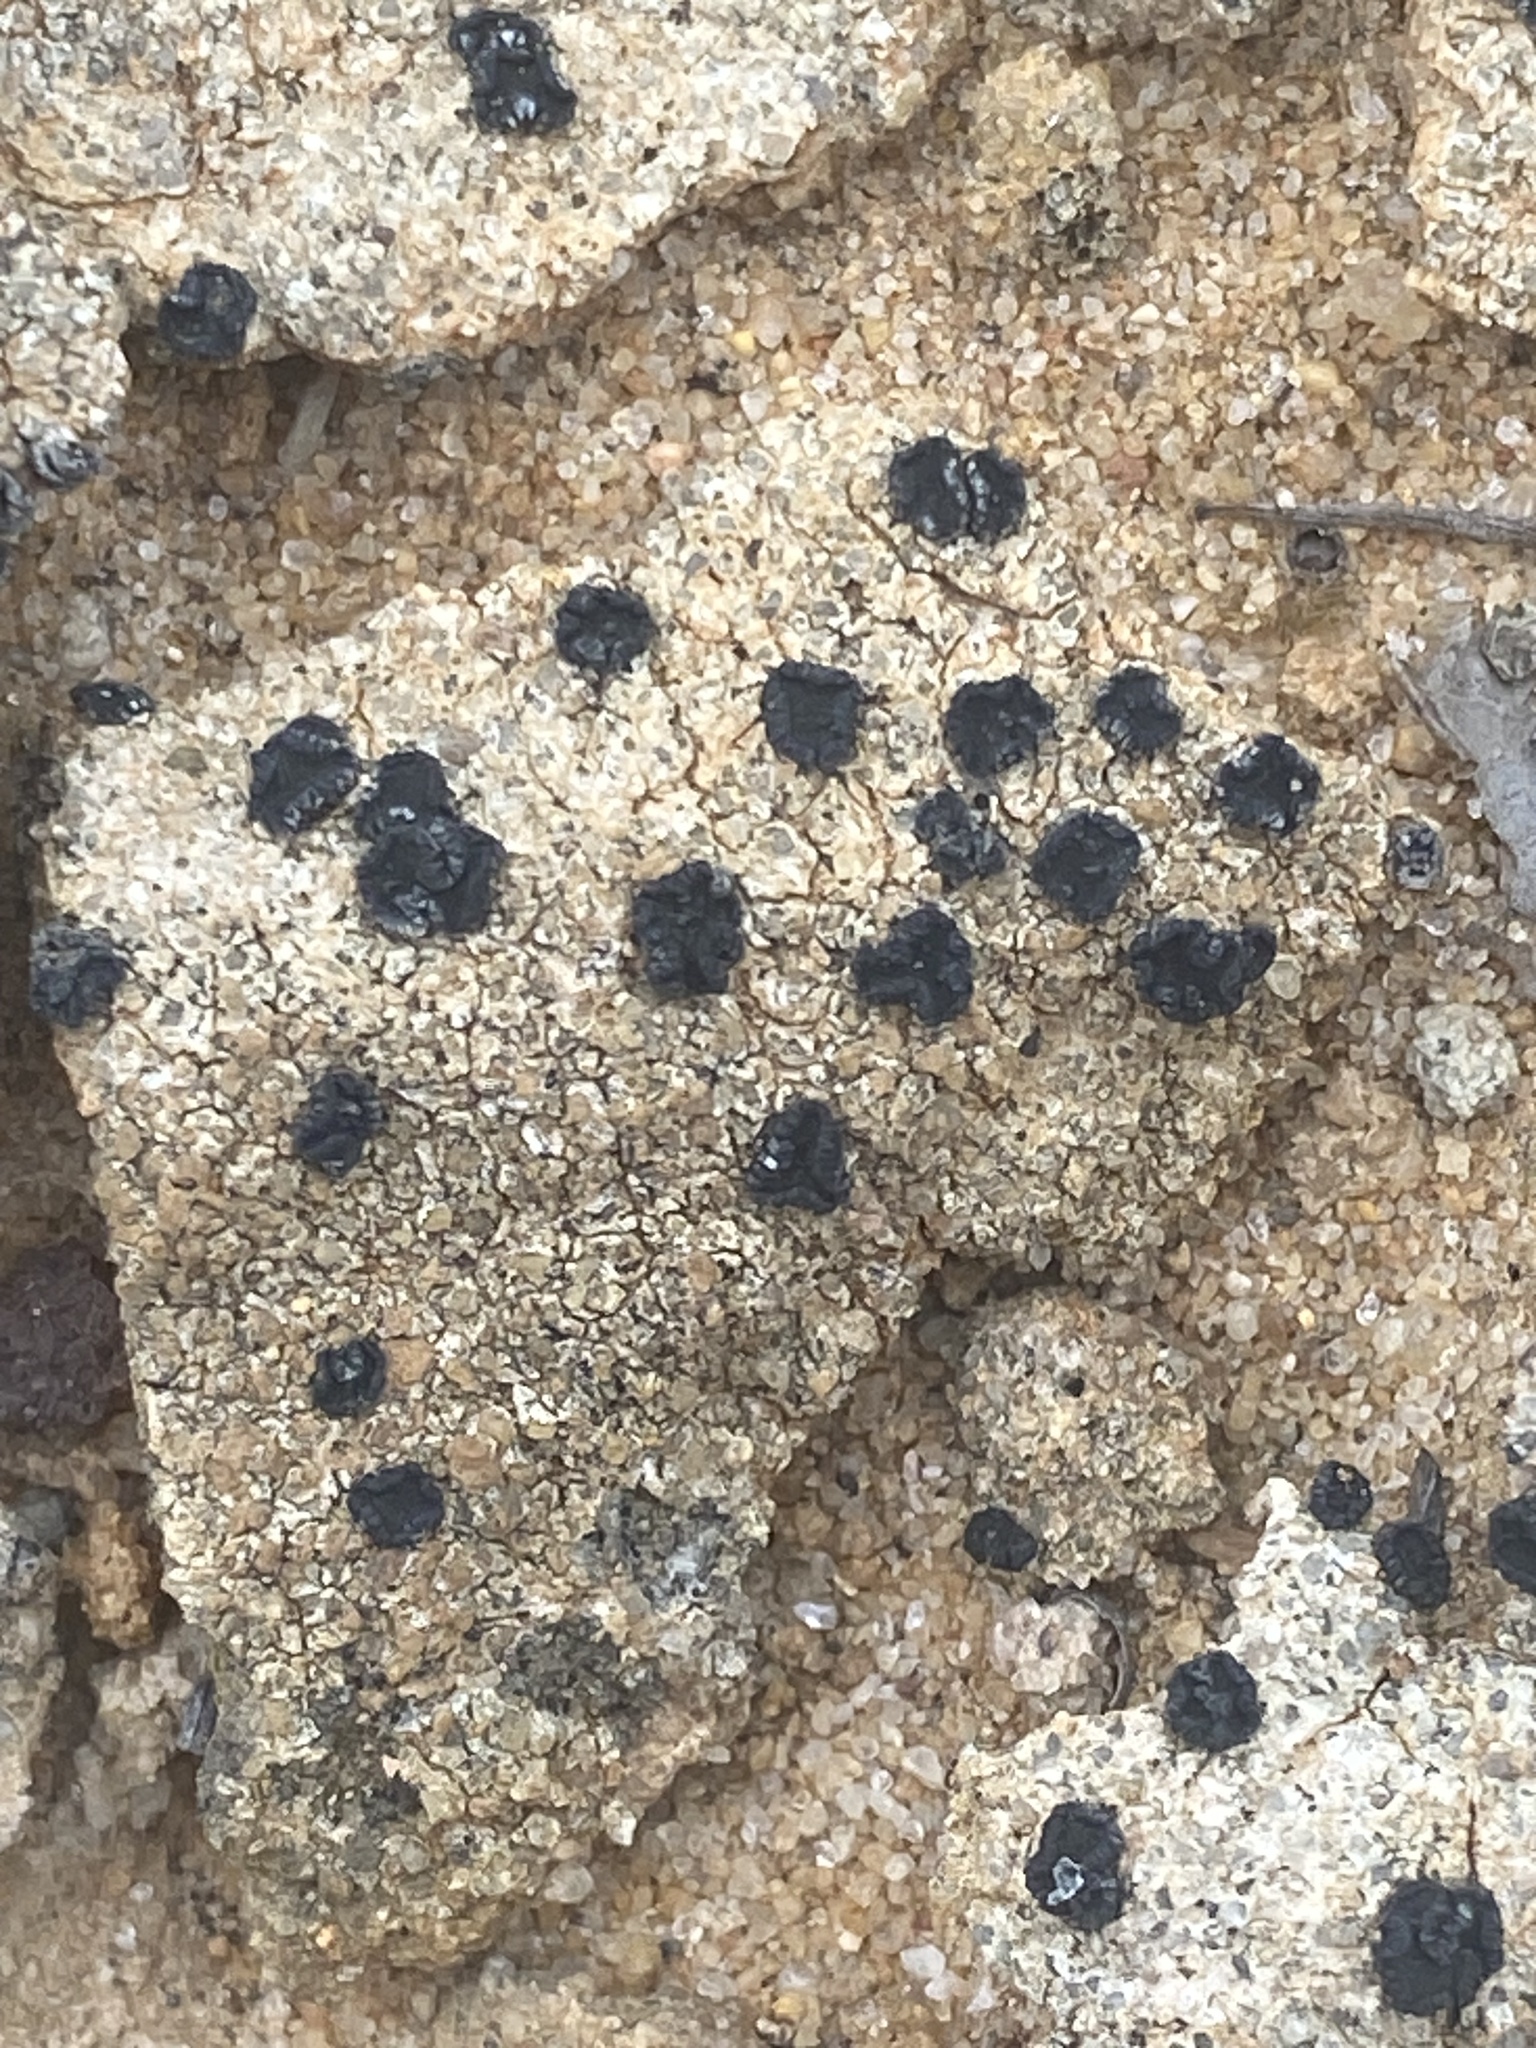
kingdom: Fungi
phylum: Ascomycota
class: Lecanoromycetes
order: Lecanorales
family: Catillariaceae
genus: Catillaria
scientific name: Catillaria lenticularis
